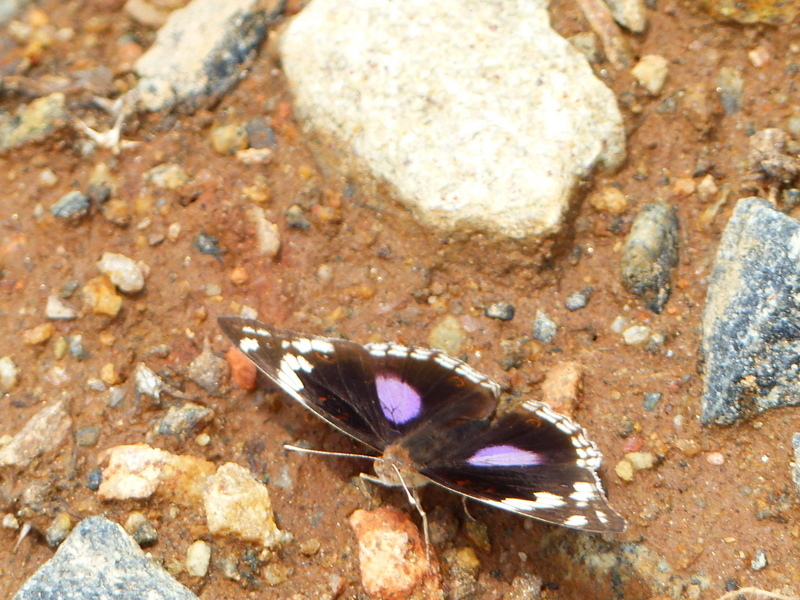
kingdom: Animalia
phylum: Arthropoda
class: Insecta
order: Lepidoptera
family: Nymphalidae
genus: Junonia
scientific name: Junonia oenone
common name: Dark blue pansy
